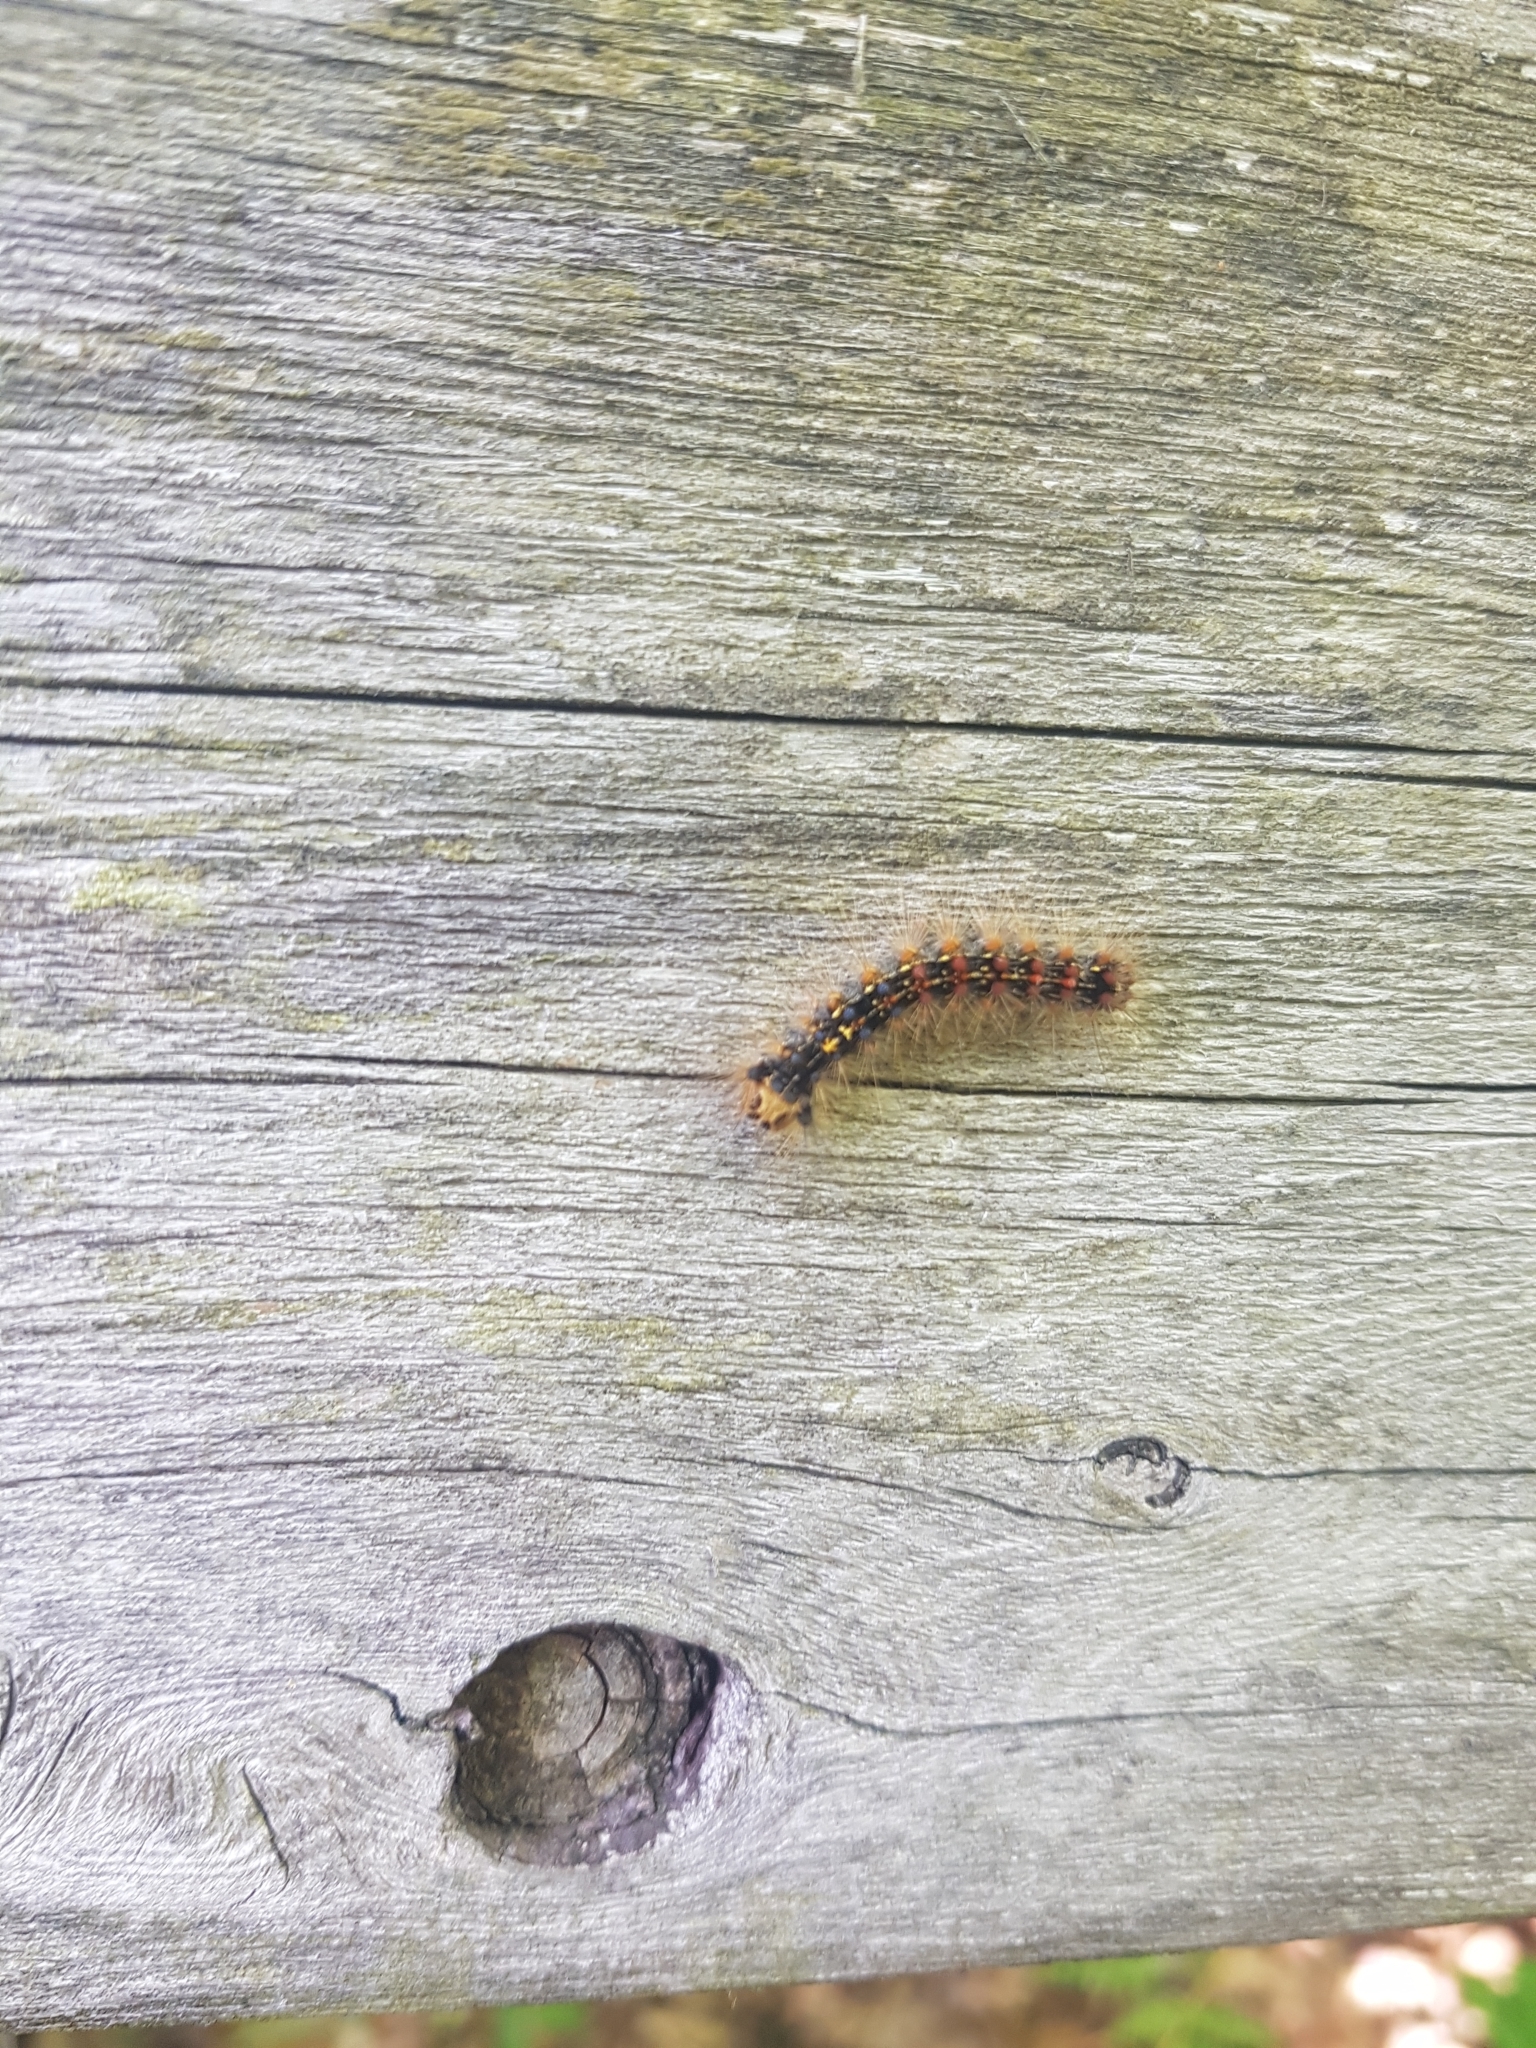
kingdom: Animalia
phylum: Arthropoda
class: Insecta
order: Lepidoptera
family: Erebidae
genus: Lymantria
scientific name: Lymantria dispar
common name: Gypsy moth
